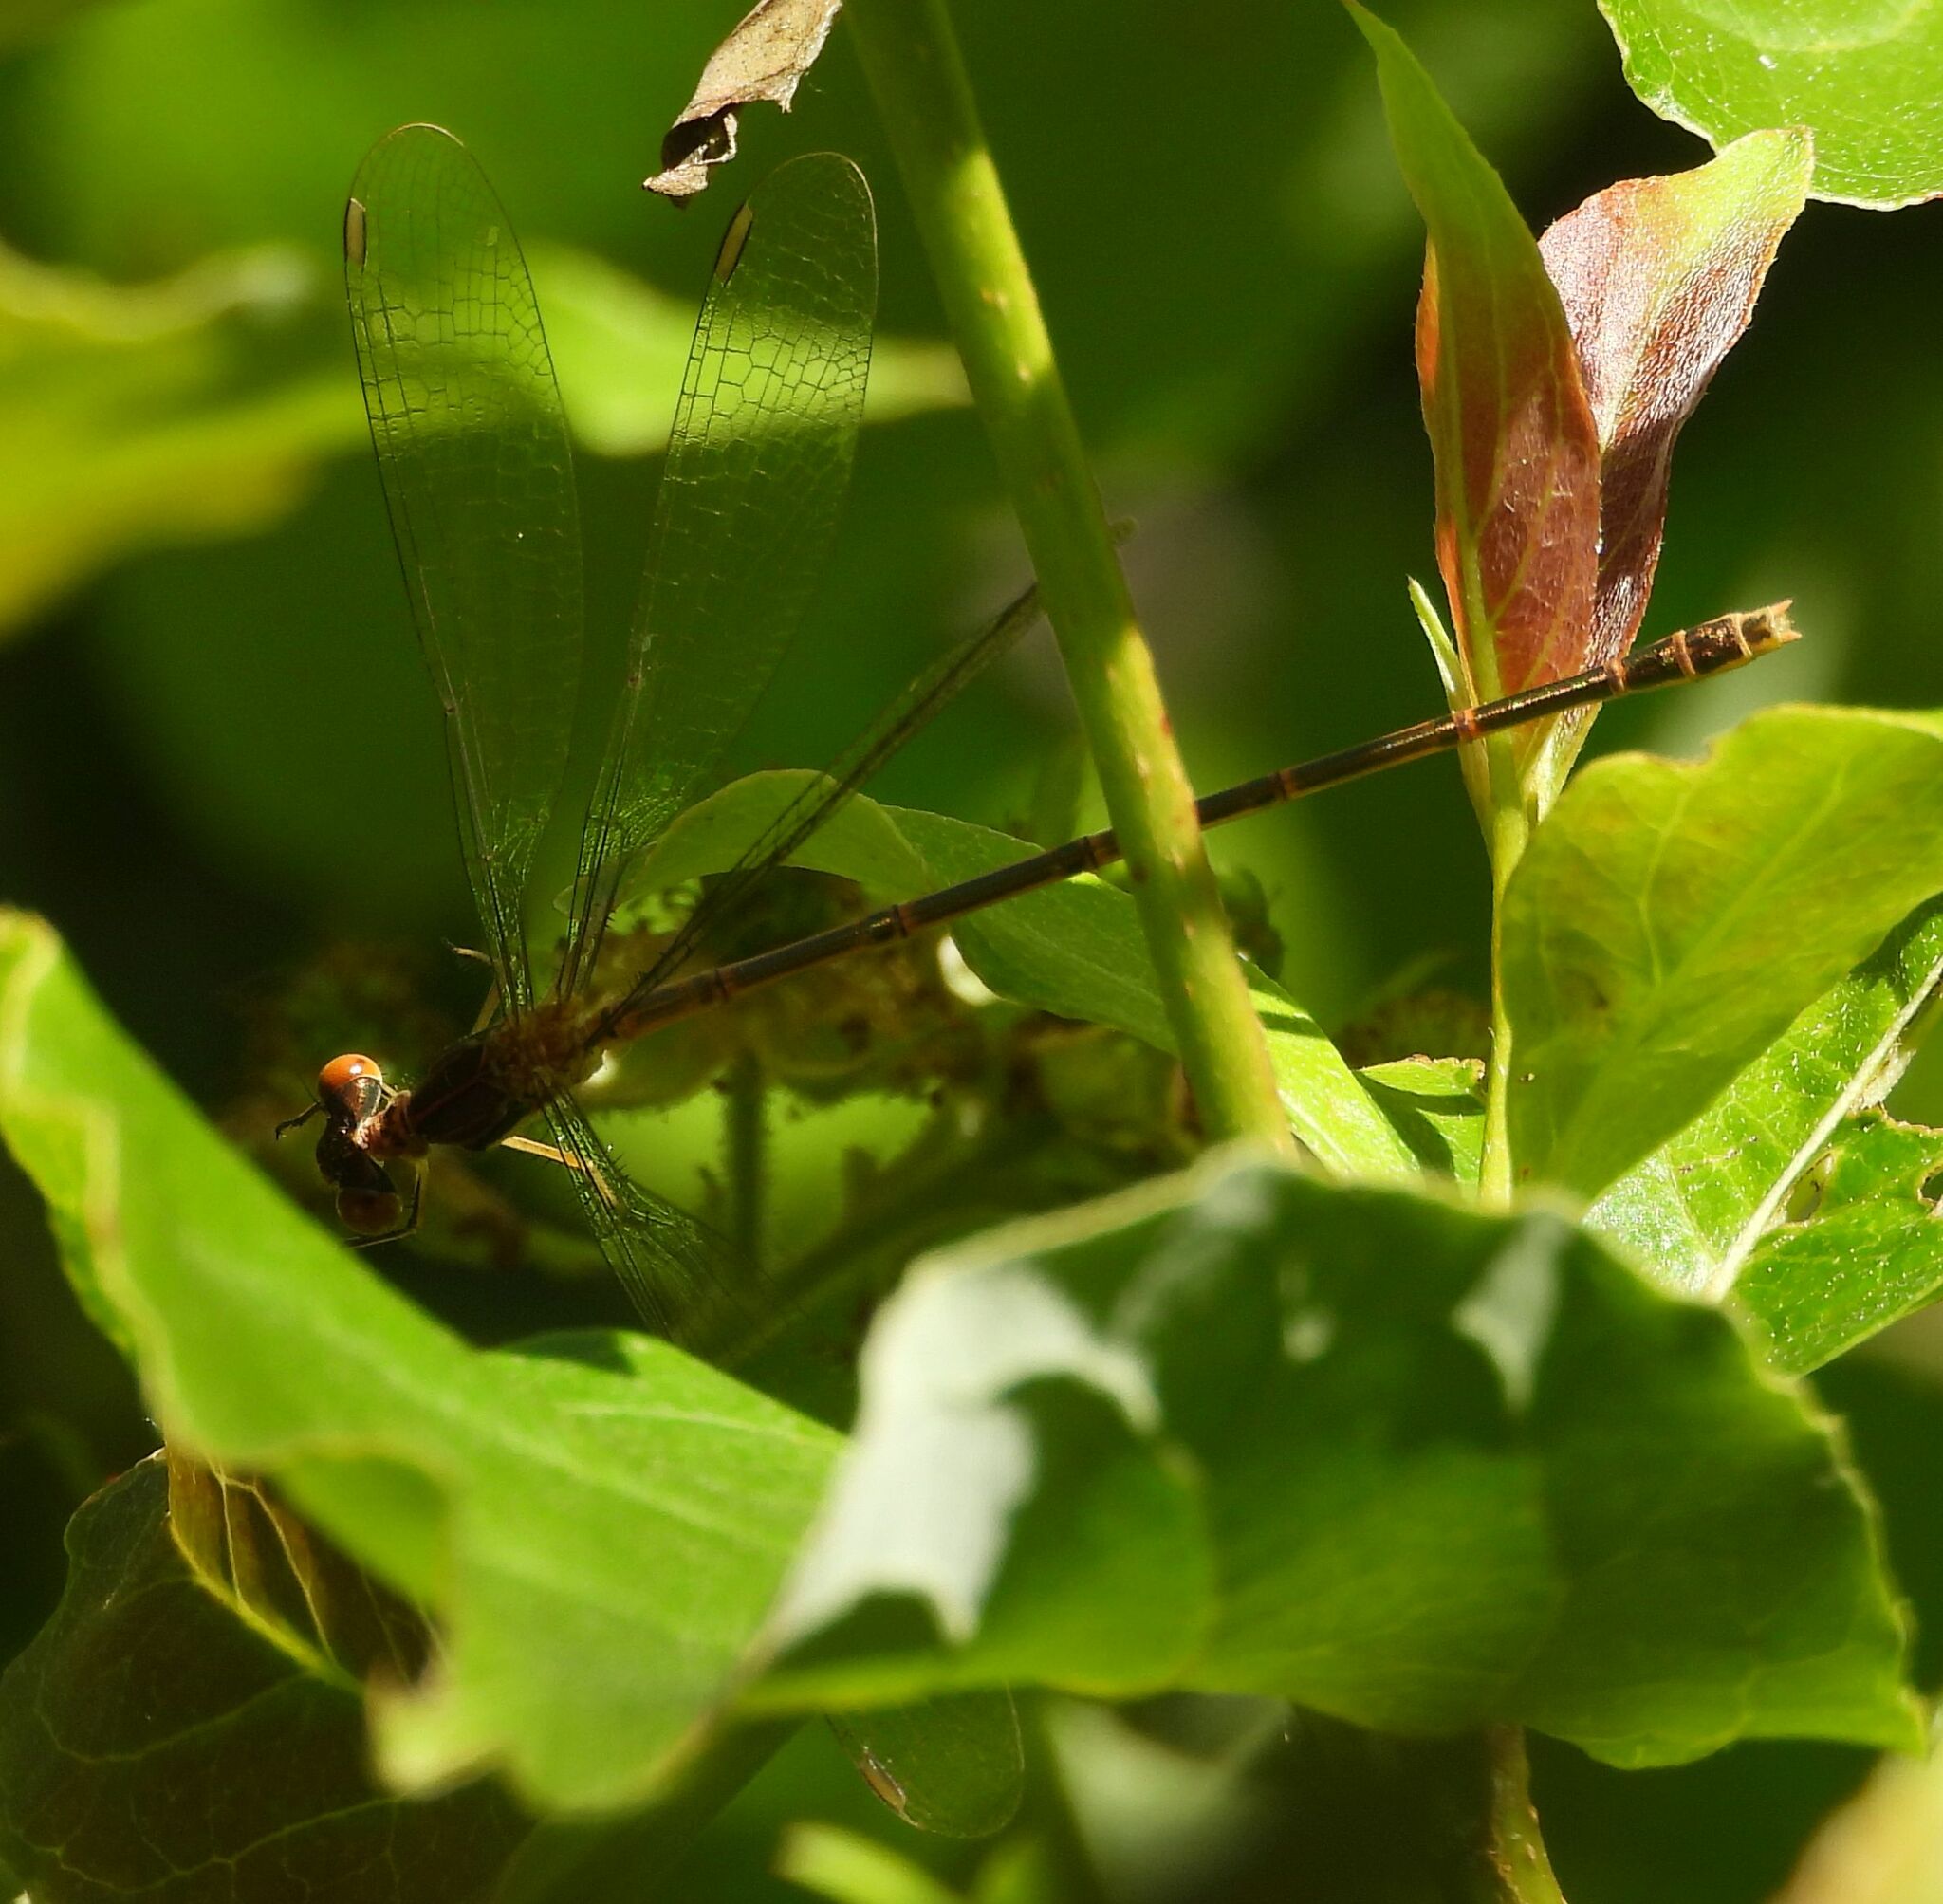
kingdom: Animalia
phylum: Arthropoda
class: Insecta
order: Odonata
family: Lestidae
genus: Lestes
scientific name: Lestes rectangularis
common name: Slender spreadwing
